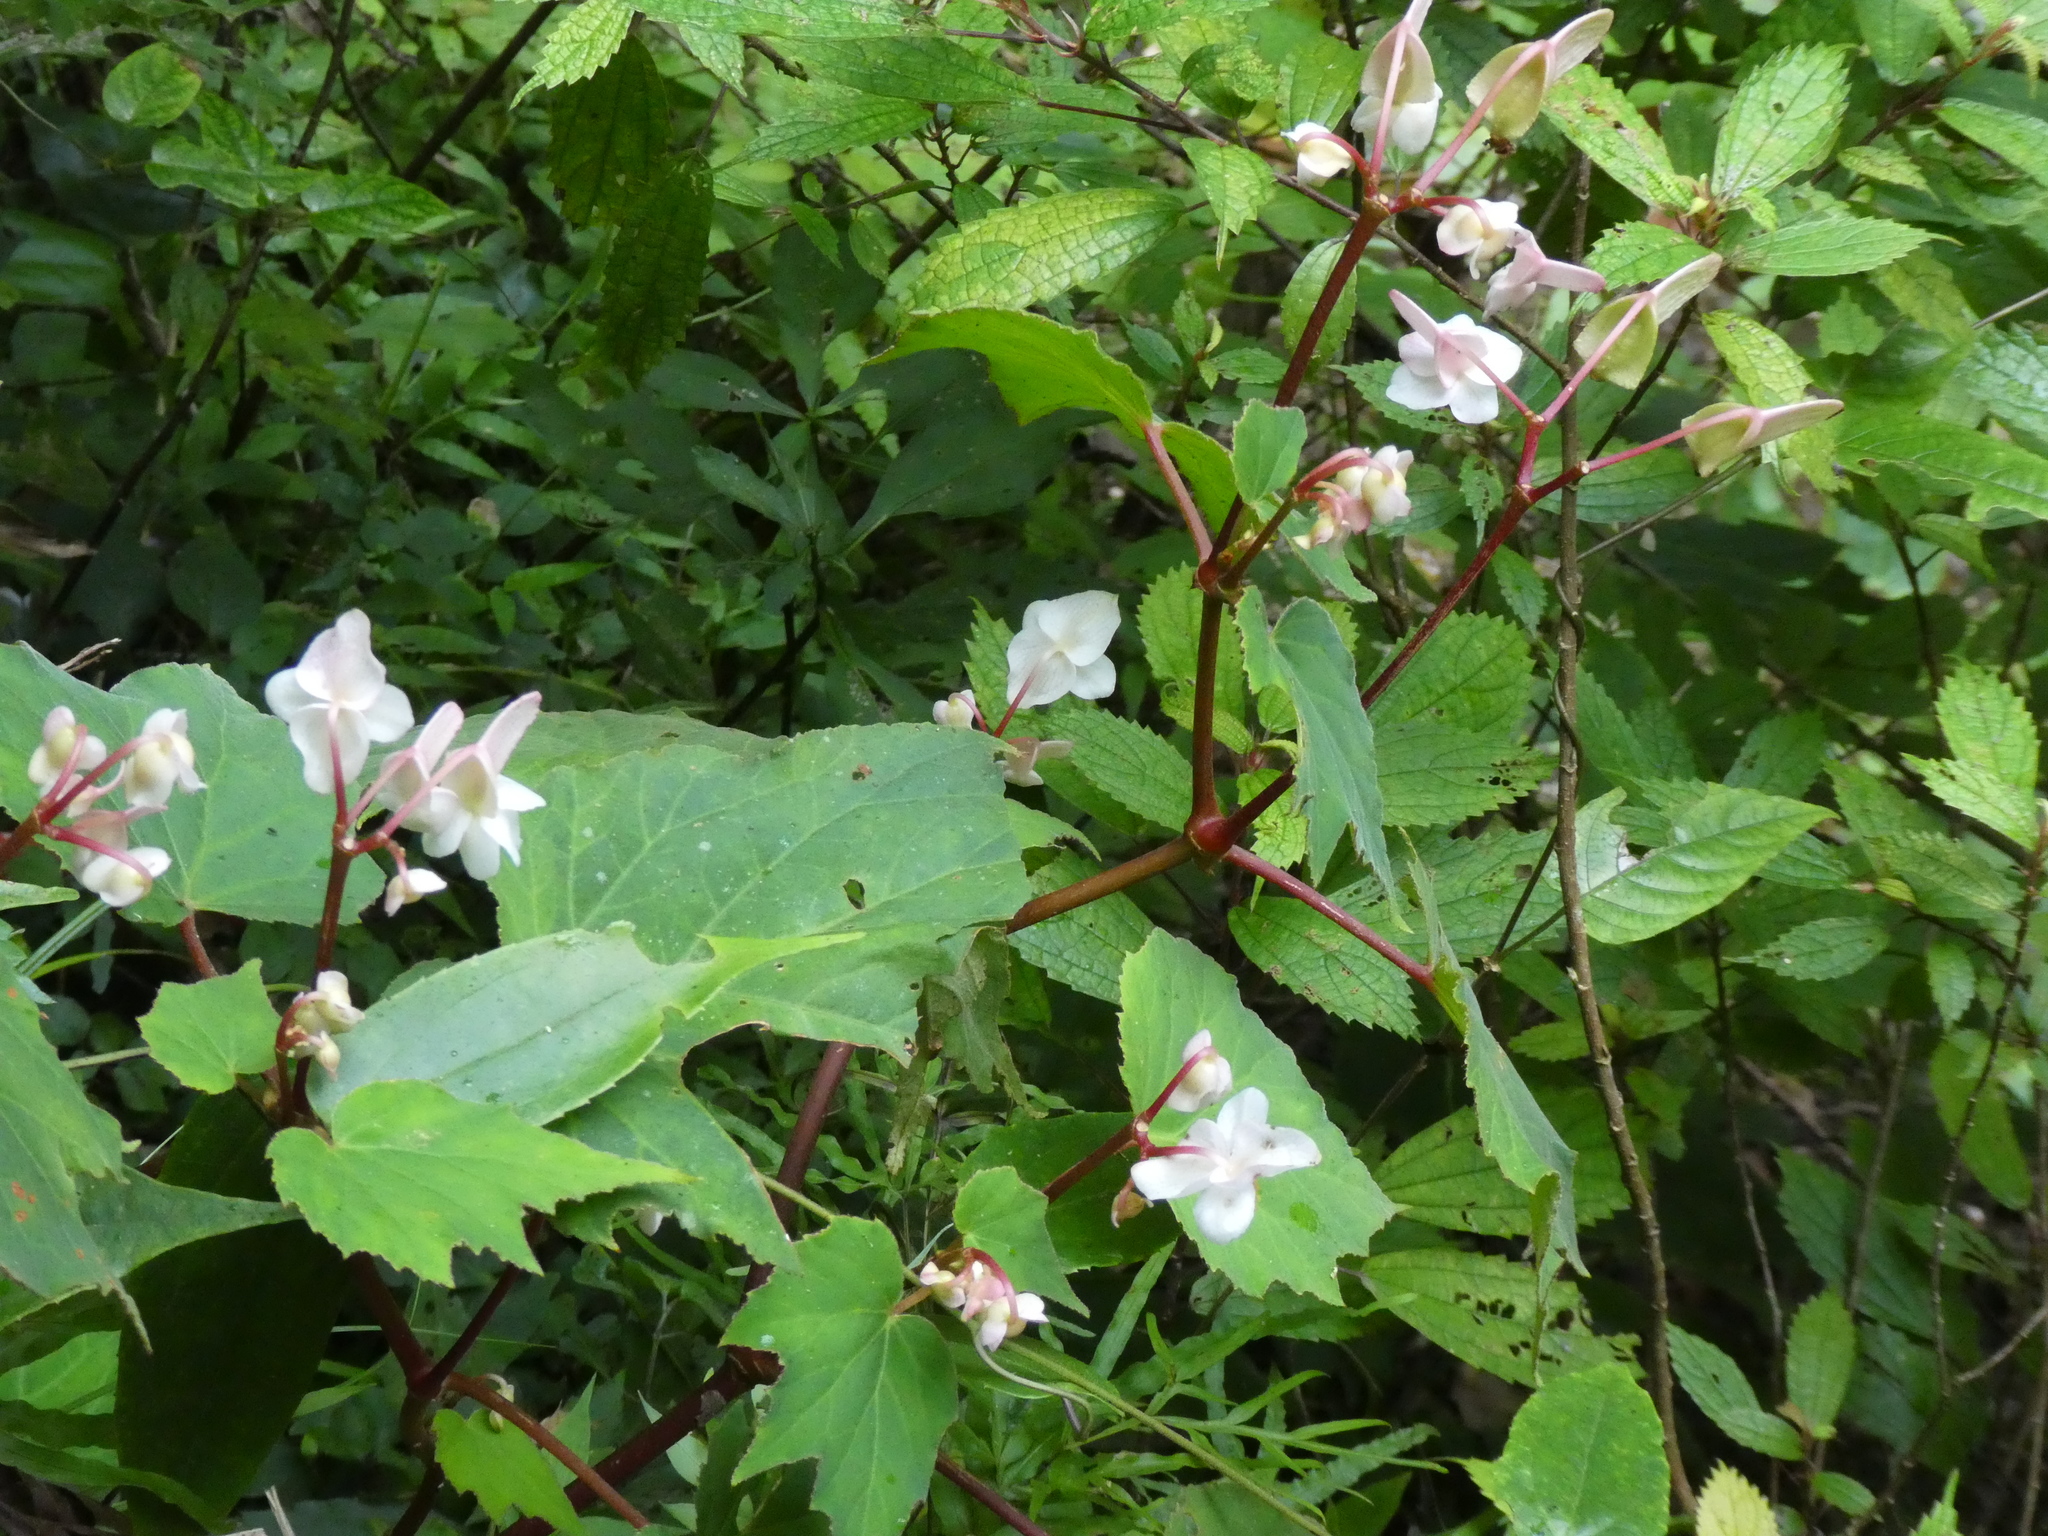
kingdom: Plantae
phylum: Tracheophyta
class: Magnoliopsida
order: Cucurbitales
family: Begoniaceae
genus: Begonia
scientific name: Begonia palmata
